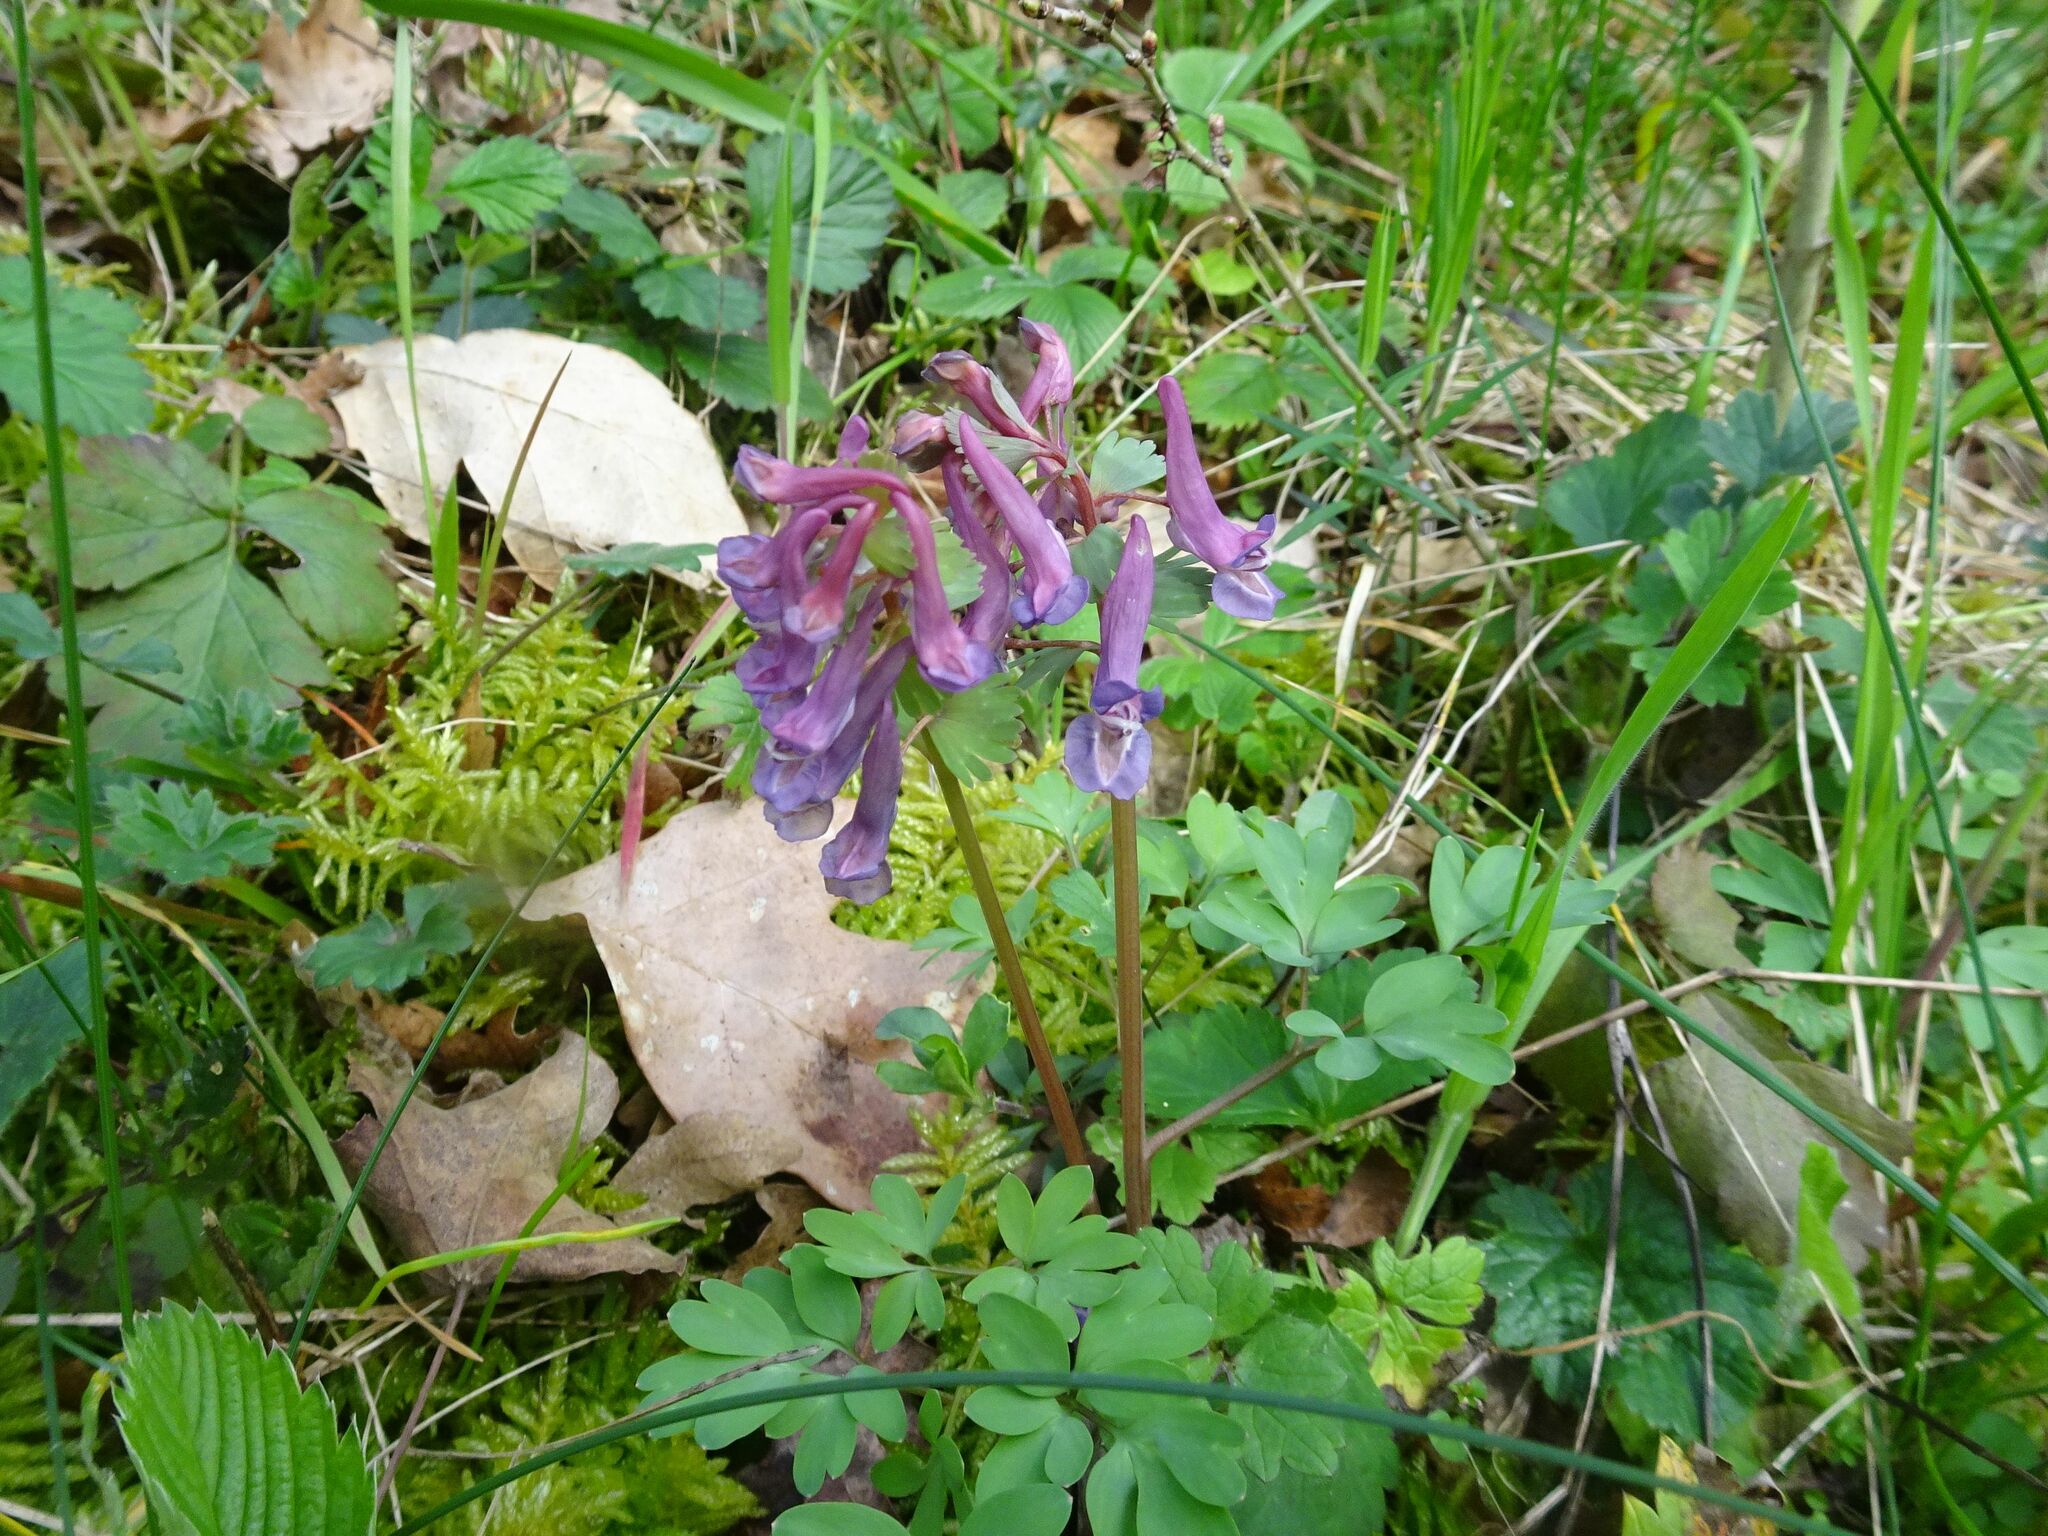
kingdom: Plantae
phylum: Tracheophyta
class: Magnoliopsida
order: Ranunculales
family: Papaveraceae
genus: Corydalis
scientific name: Corydalis solida
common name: Bird-in-a-bush
